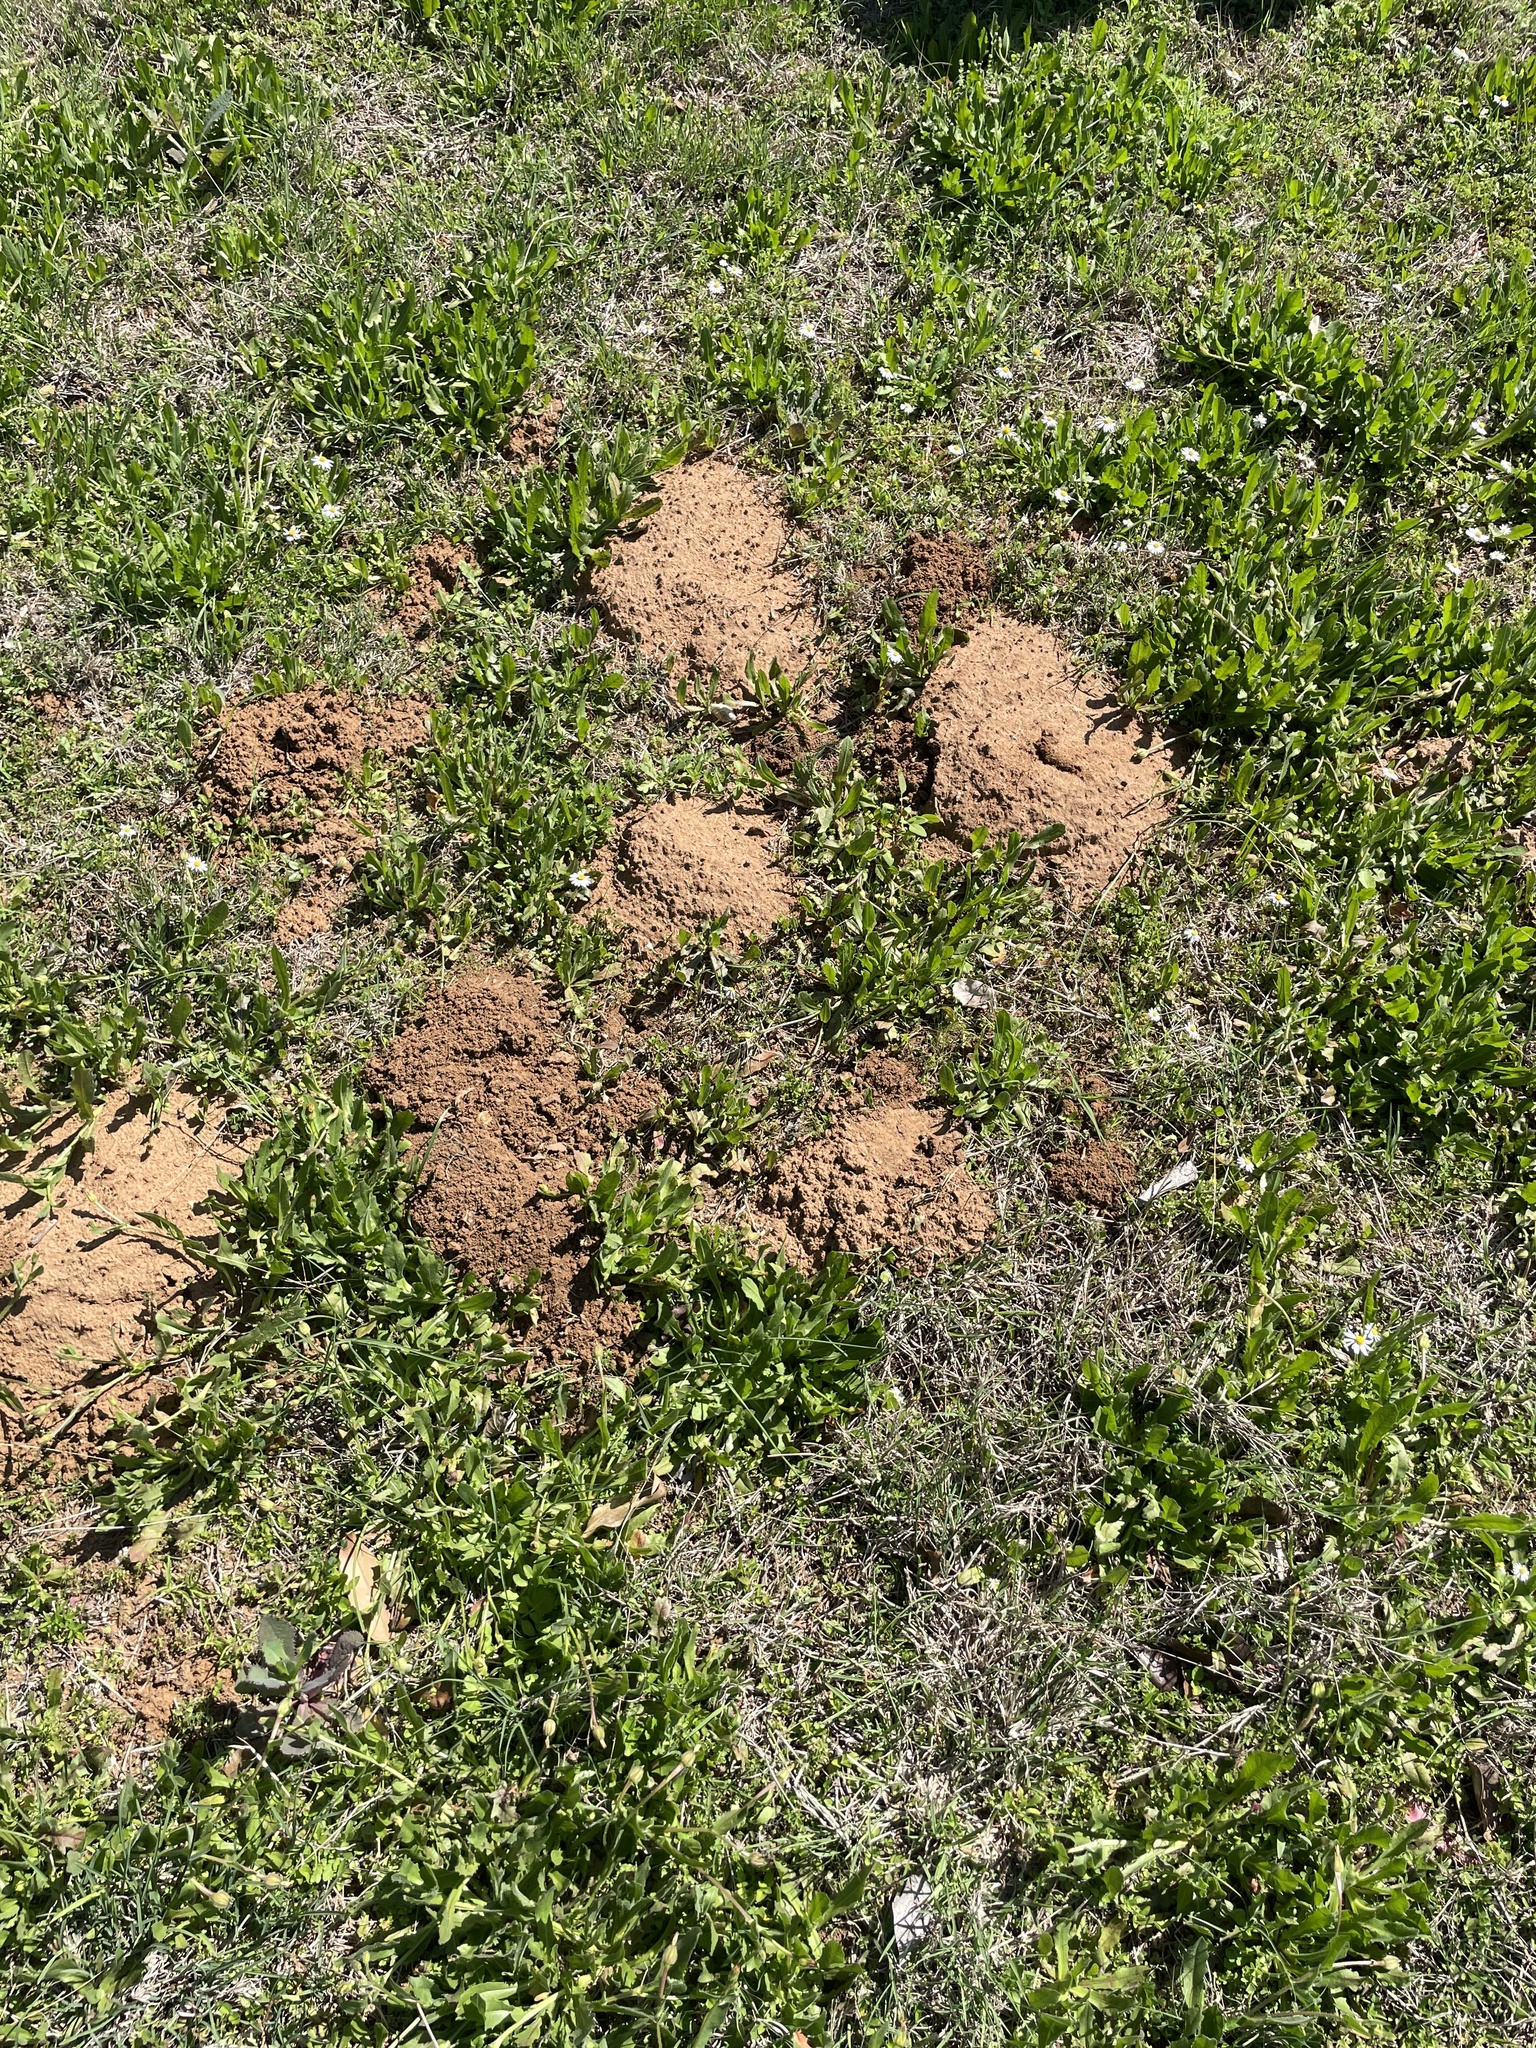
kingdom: Animalia
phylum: Chordata
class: Mammalia
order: Rodentia
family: Geomyidae
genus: Geomys
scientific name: Geomys attwateri
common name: Attwater's pocket gopher
